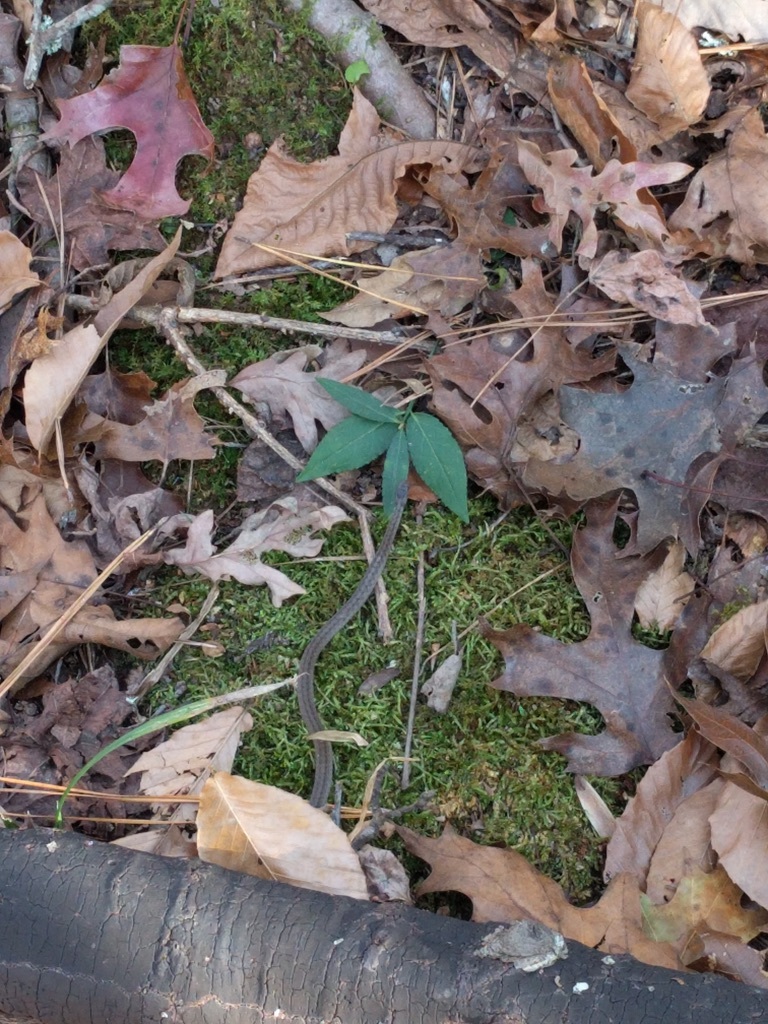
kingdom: Animalia
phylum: Chordata
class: Squamata
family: Colubridae
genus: Storeria
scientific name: Storeria dekayi
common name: (dekay’s) brown snake
